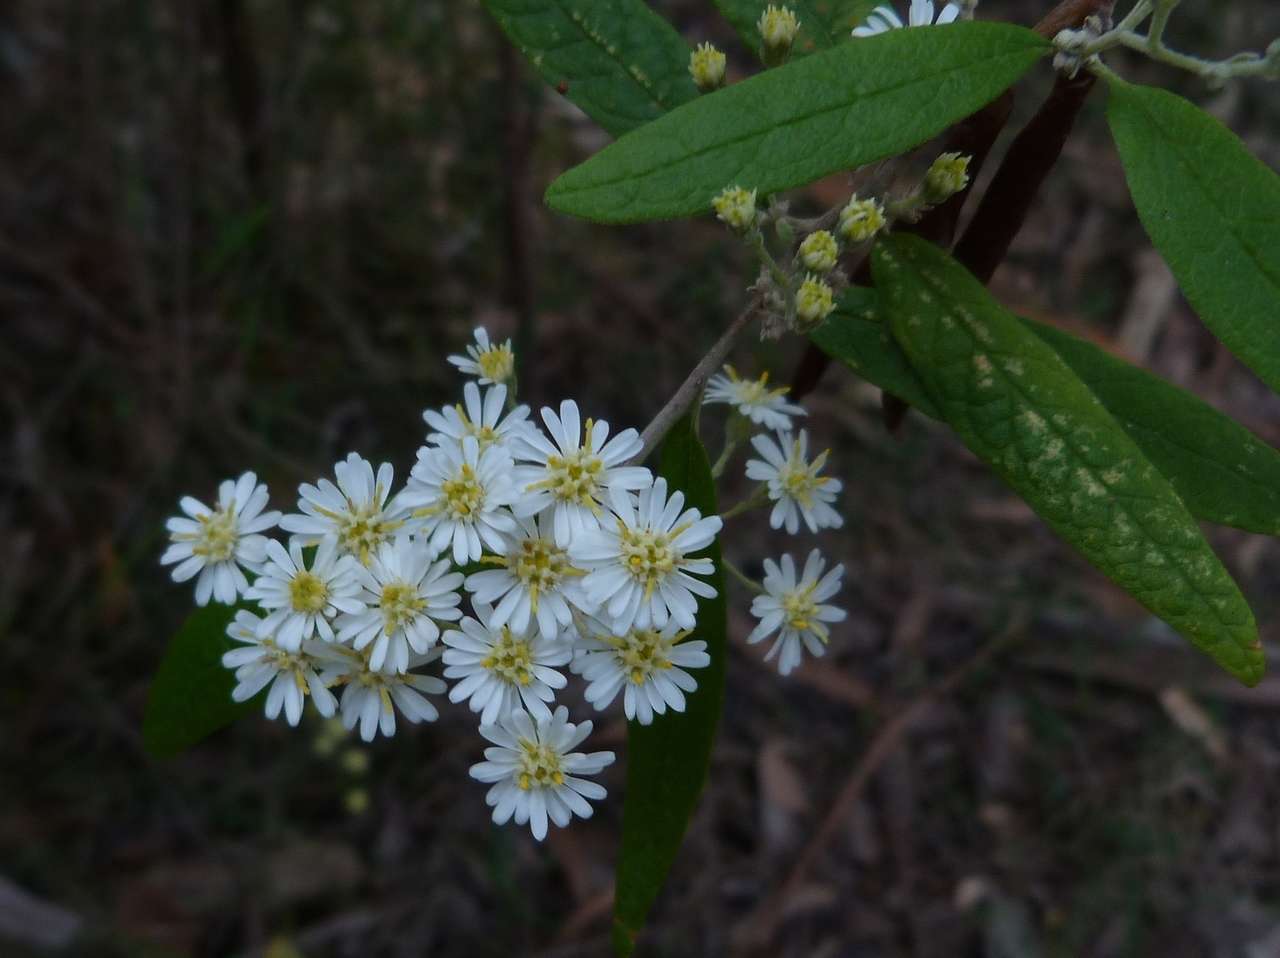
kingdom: Plantae
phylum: Tracheophyta
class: Magnoliopsida
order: Asterales
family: Asteraceae
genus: Olearia
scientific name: Olearia lirata
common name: Dusty daisybush
